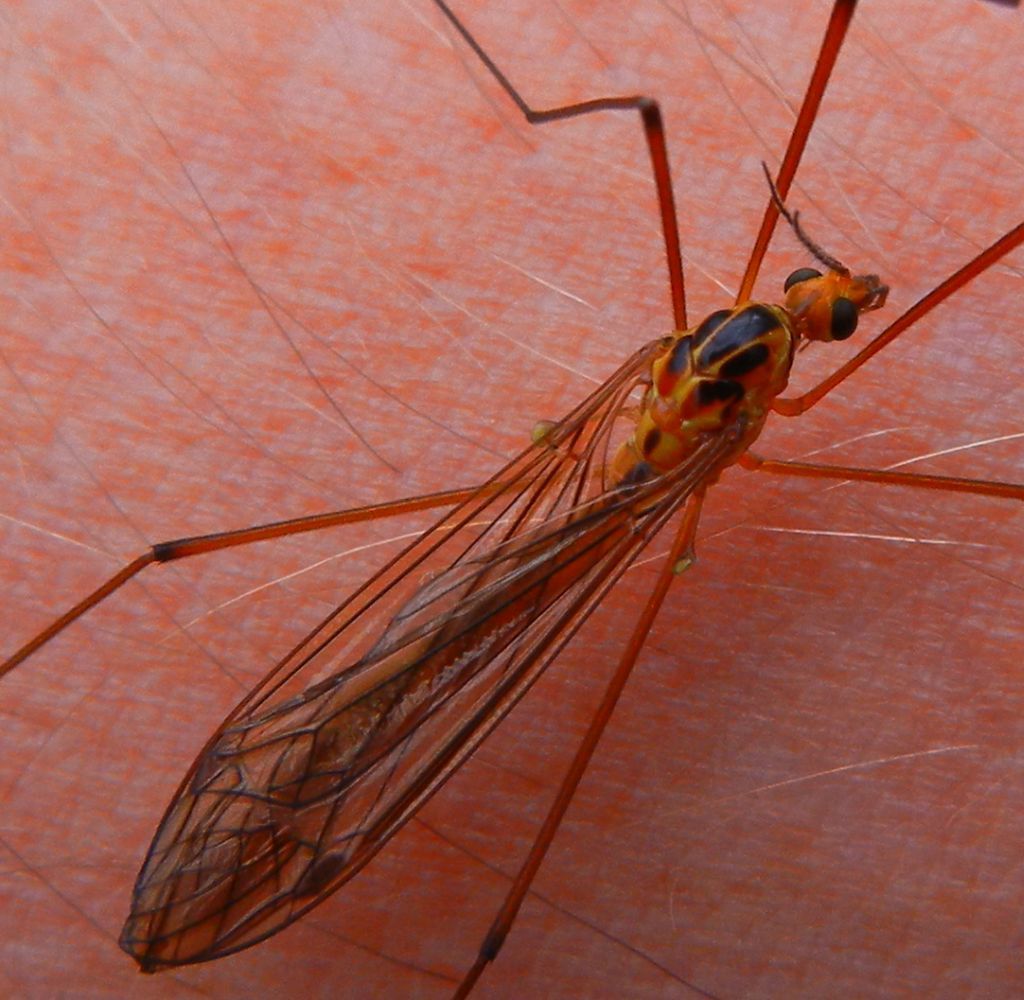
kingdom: Animalia
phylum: Arthropoda
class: Insecta
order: Diptera
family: Tipulidae
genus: Nephrotoma
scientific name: Nephrotoma scurra
